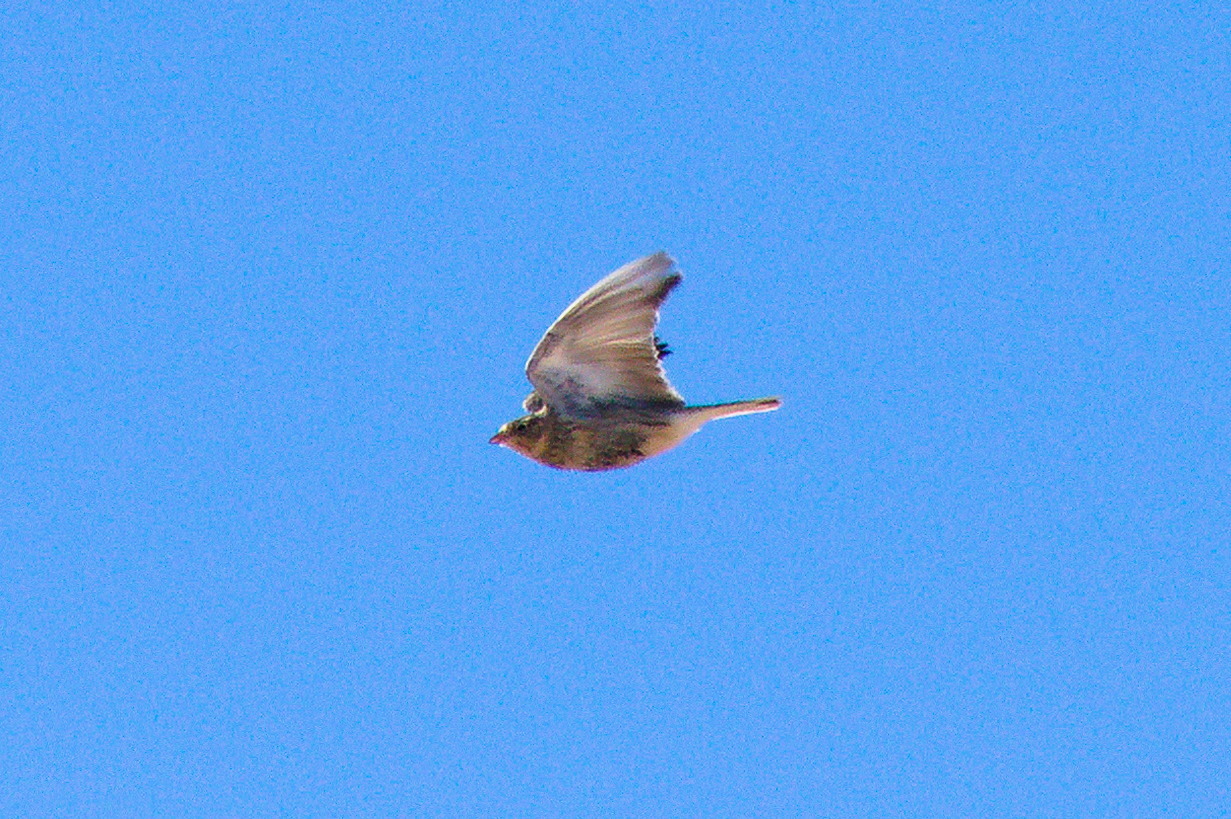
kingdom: Animalia
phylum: Chordata
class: Aves
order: Passeriformes
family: Calcariidae
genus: Calcarius
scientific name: Calcarius ornatus
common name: Chestnut-collared longspur
